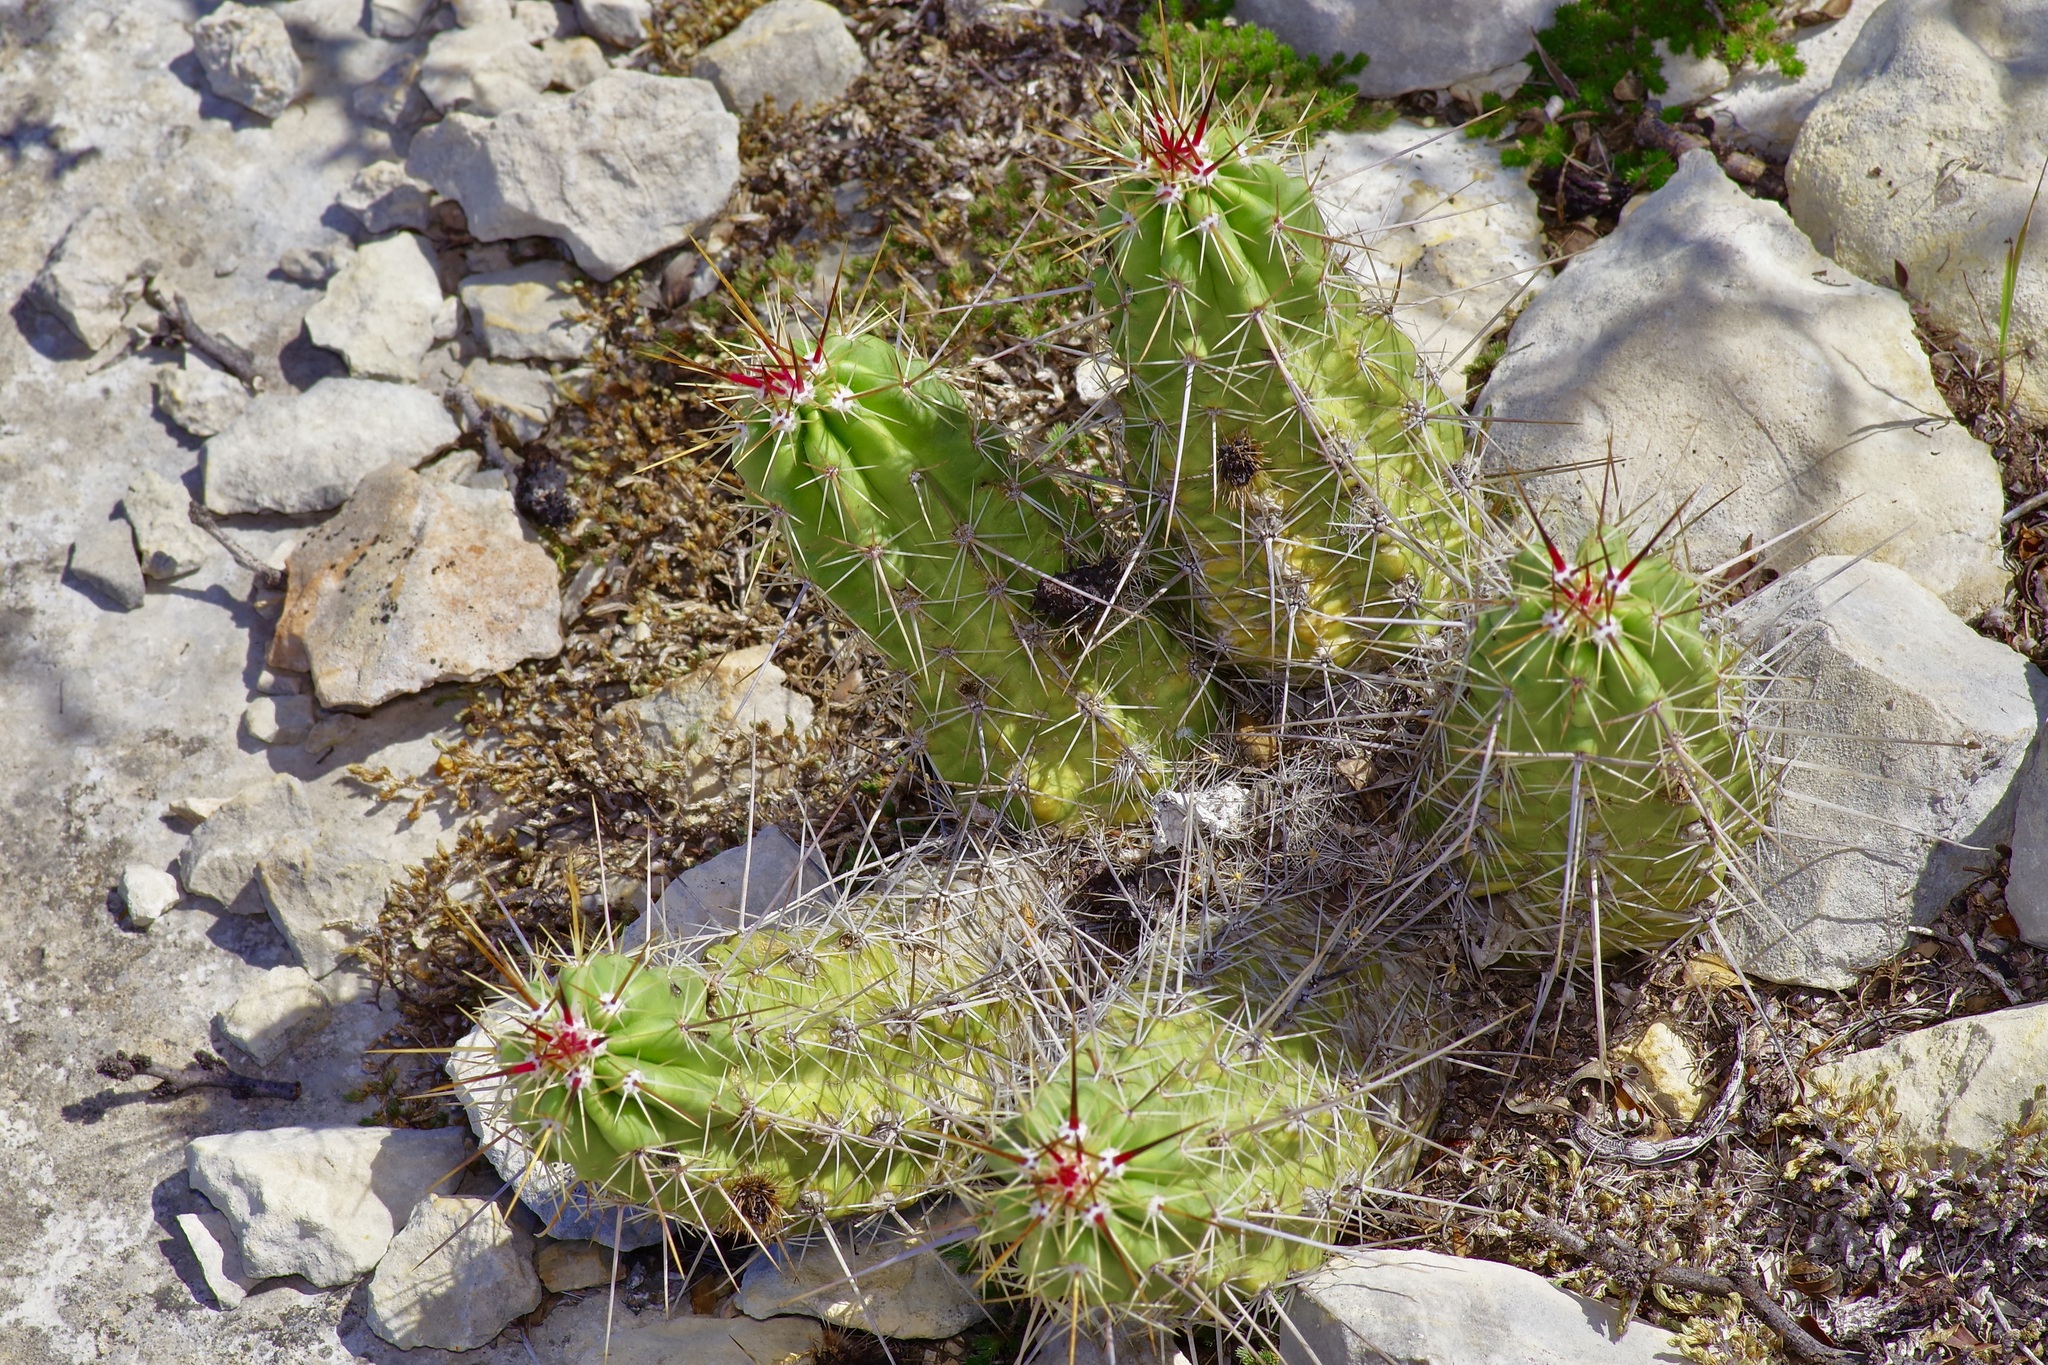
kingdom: Plantae
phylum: Tracheophyta
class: Magnoliopsida
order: Caryophyllales
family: Cactaceae
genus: Echinocereus
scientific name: Echinocereus enneacanthus
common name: Pitaya
